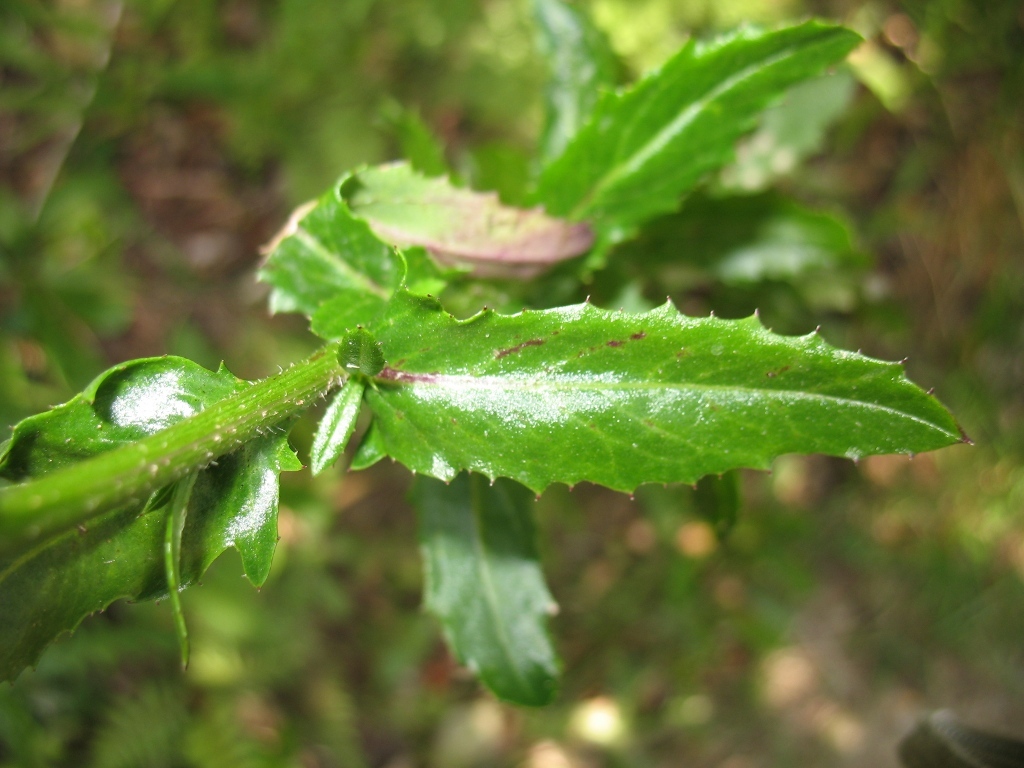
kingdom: Plantae
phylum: Tracheophyta
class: Magnoliopsida
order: Asterales
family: Asteraceae
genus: Senecio
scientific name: Senecio glastifolius
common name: Woad-leaved ragwort
